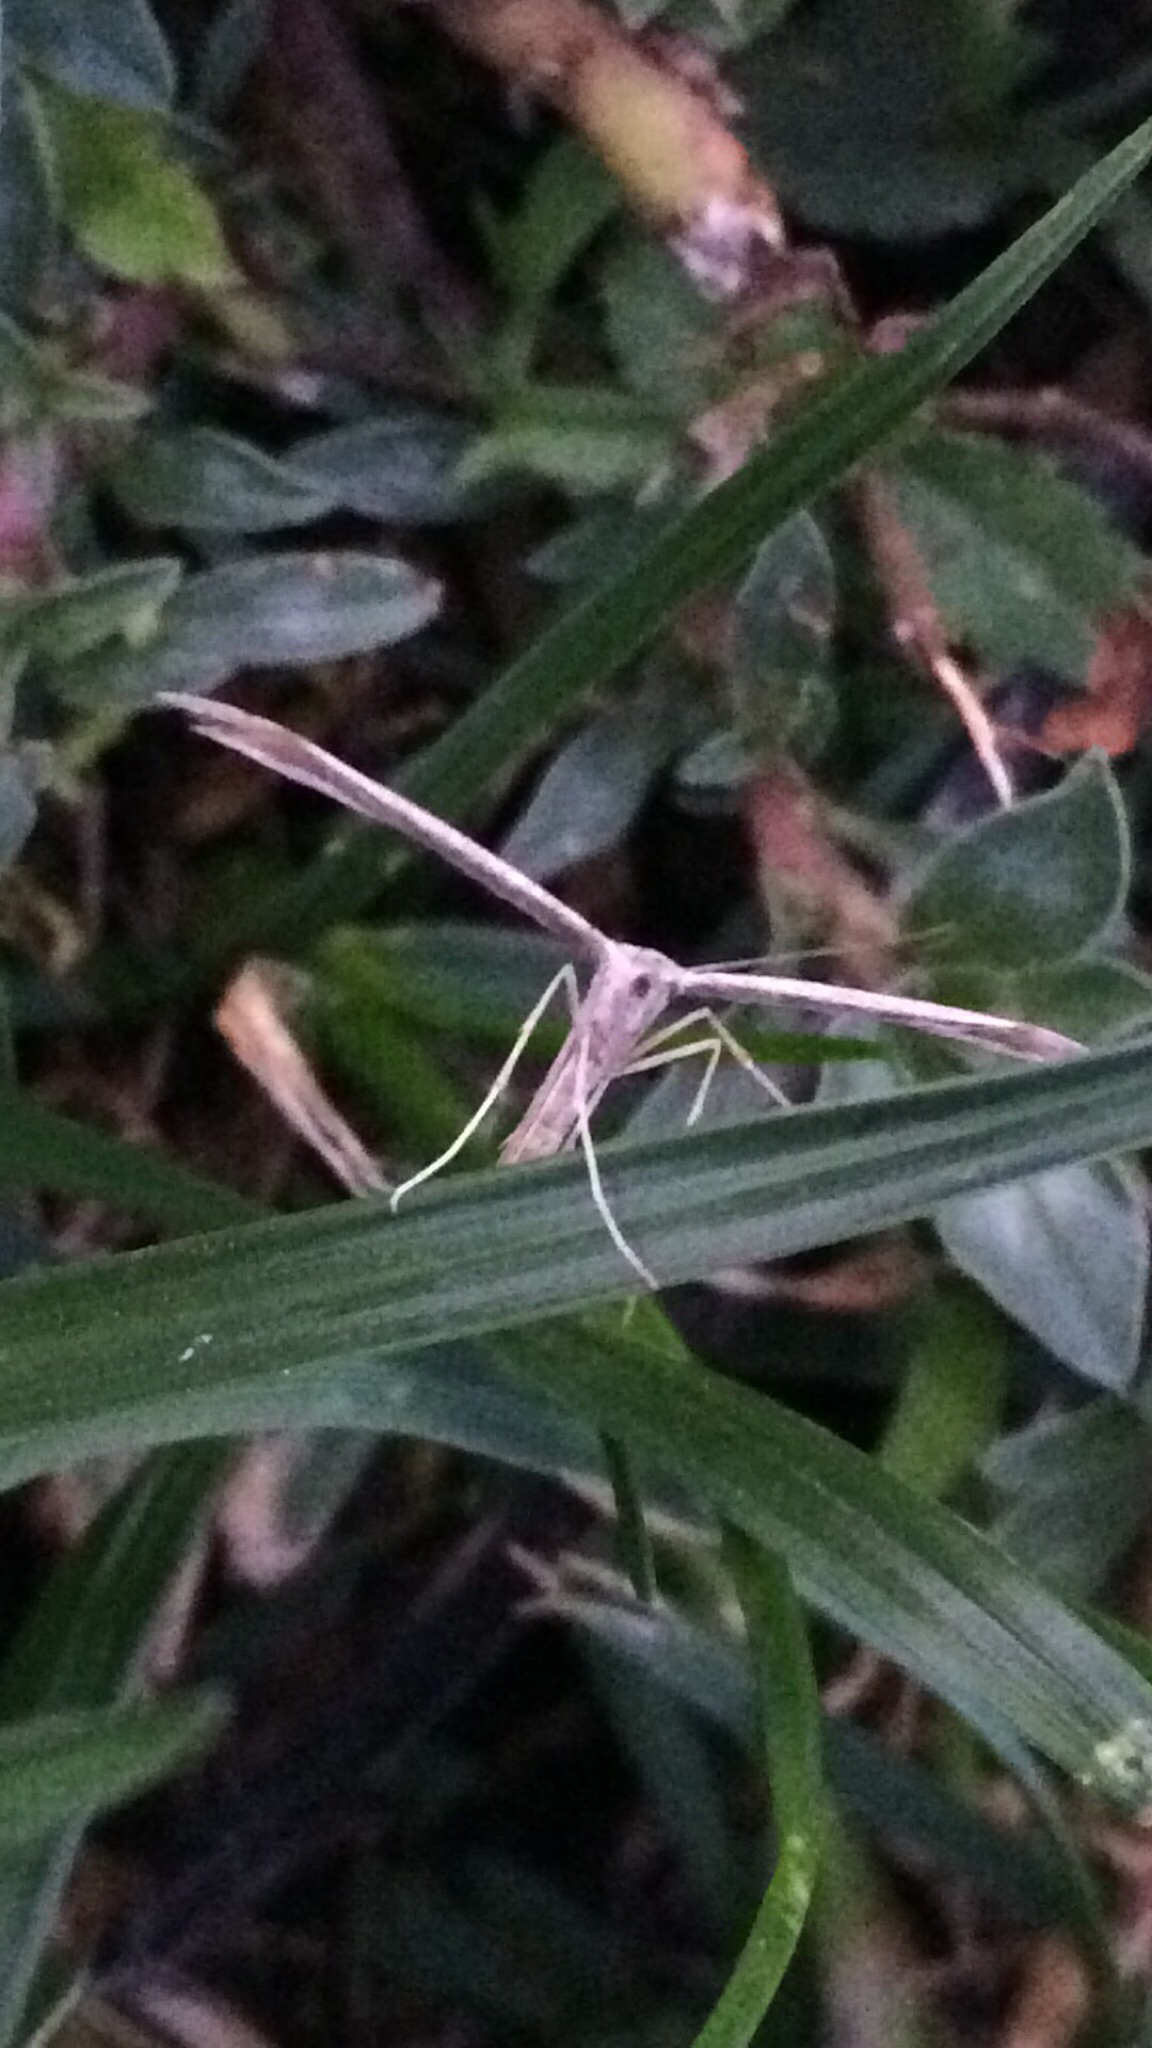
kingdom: Animalia
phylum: Arthropoda
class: Insecta
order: Lepidoptera
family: Pterophoridae
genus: Emmelina
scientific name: Emmelina monodactyla
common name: Common plume
